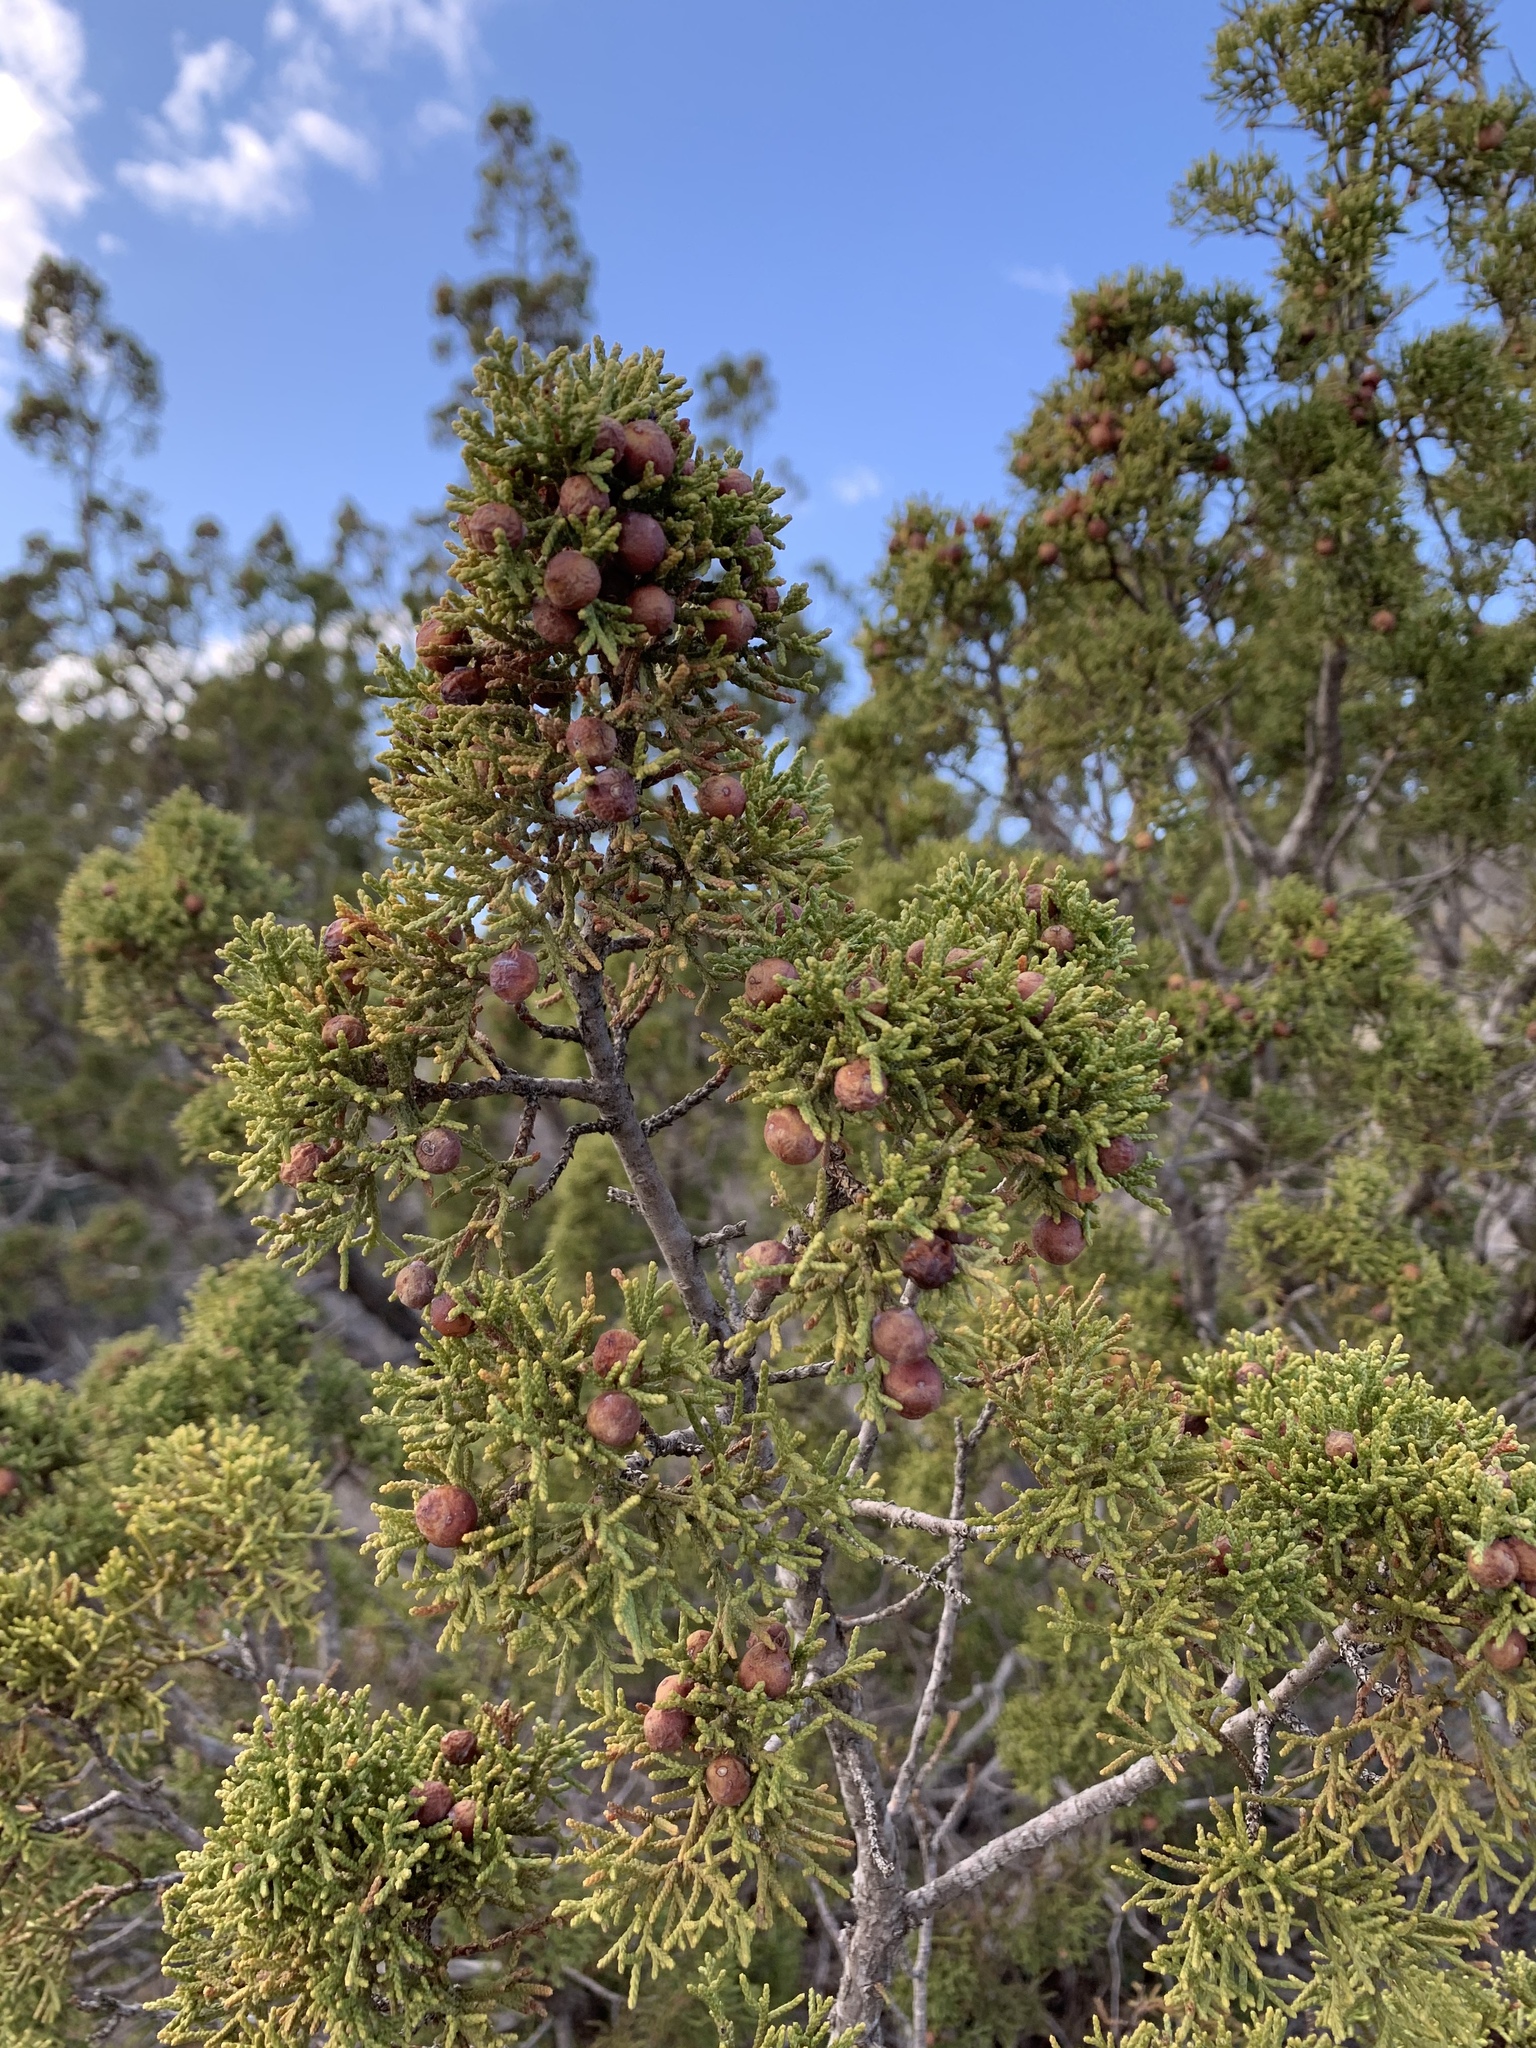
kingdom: Plantae
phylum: Tracheophyta
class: Pinopsida
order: Pinales
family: Cupressaceae
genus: Juniperus
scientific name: Juniperus pinchotii
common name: Pinchot juniper
